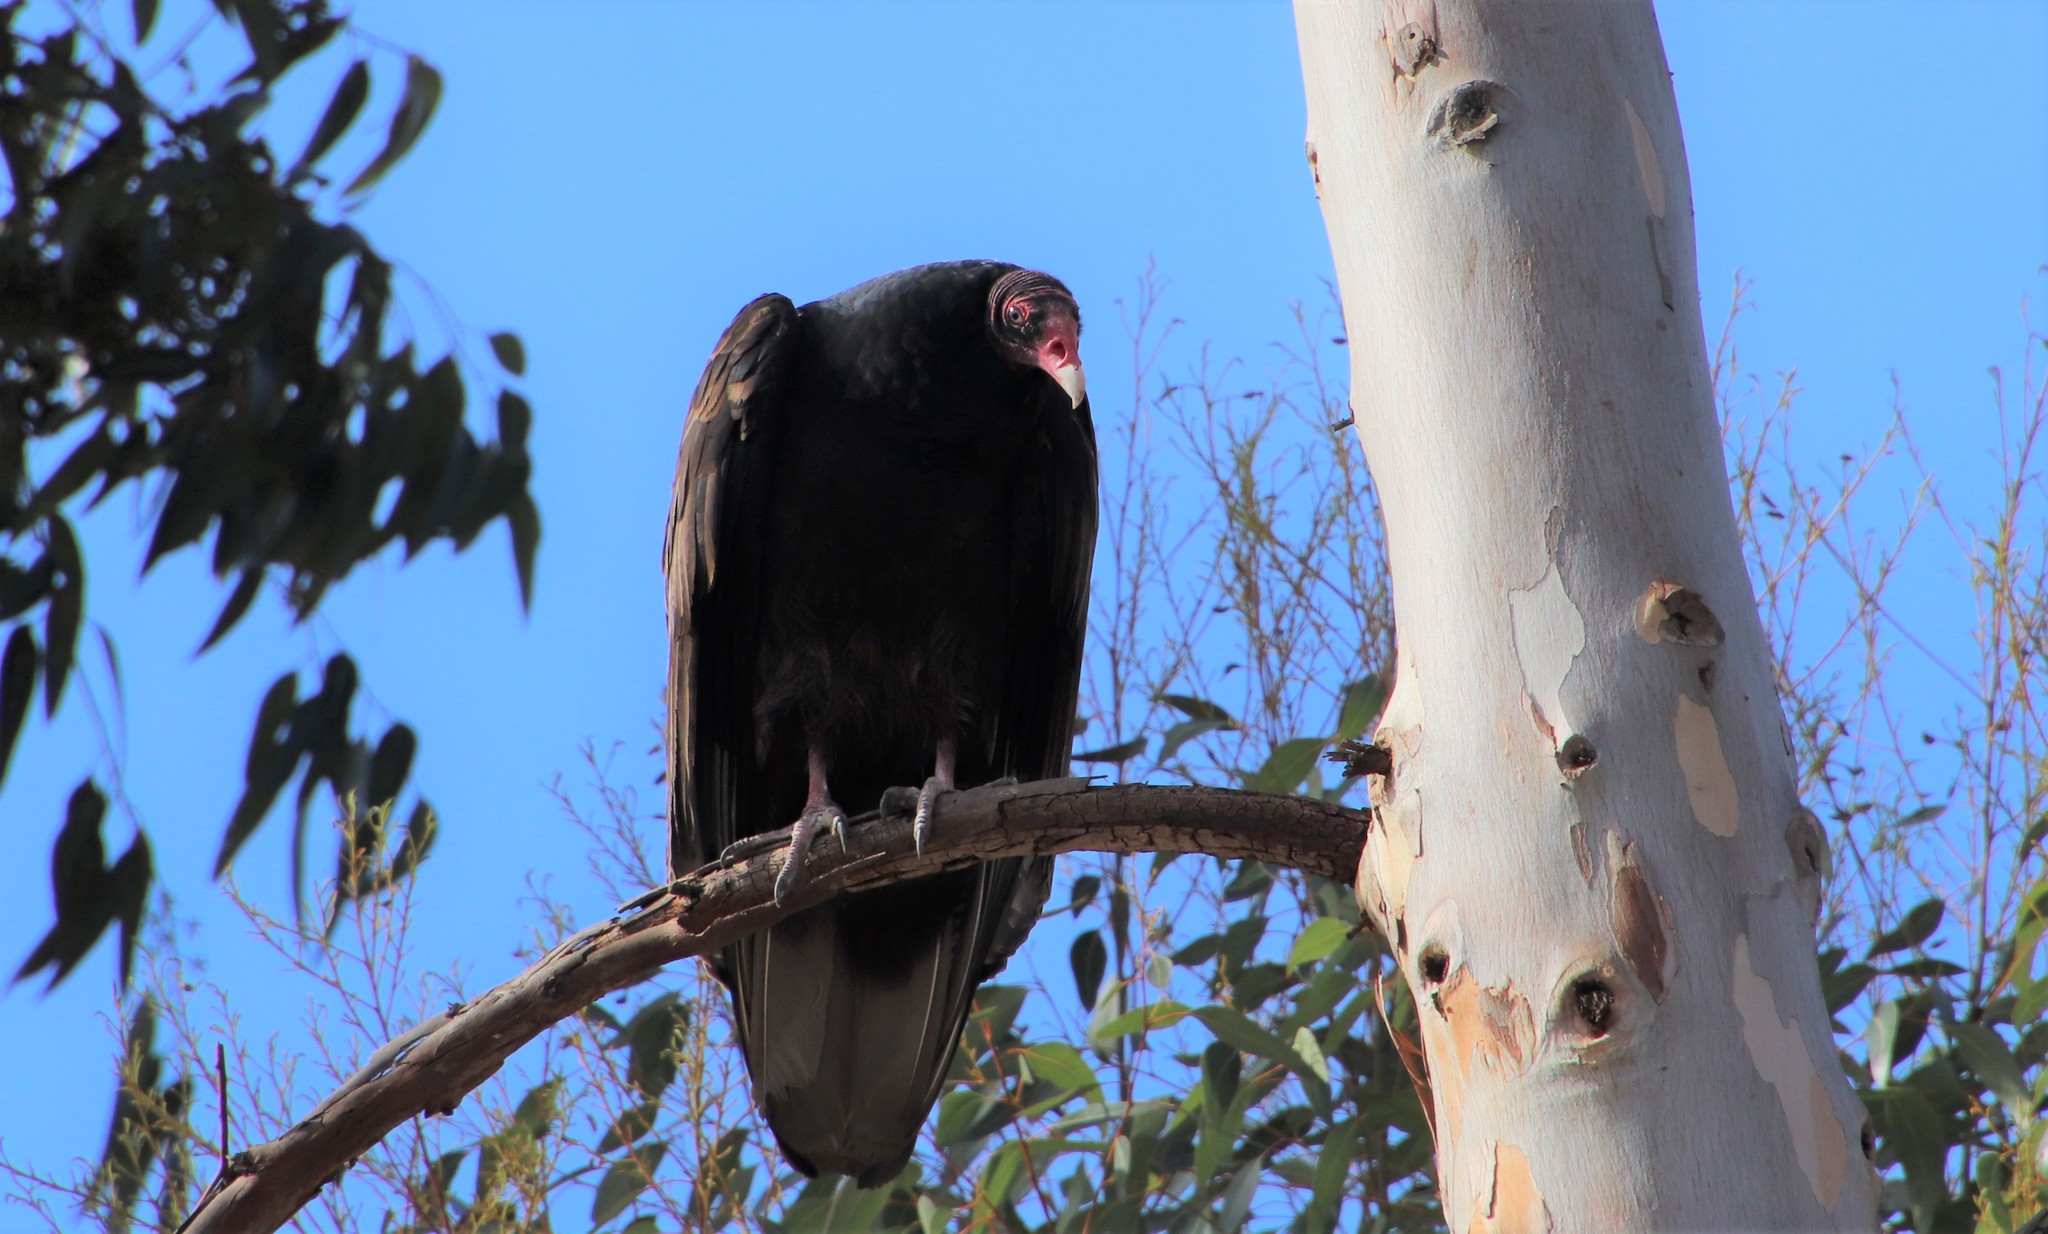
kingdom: Animalia
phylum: Chordata
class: Aves
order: Accipitriformes
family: Cathartidae
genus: Cathartes
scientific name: Cathartes aura
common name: Turkey vulture
